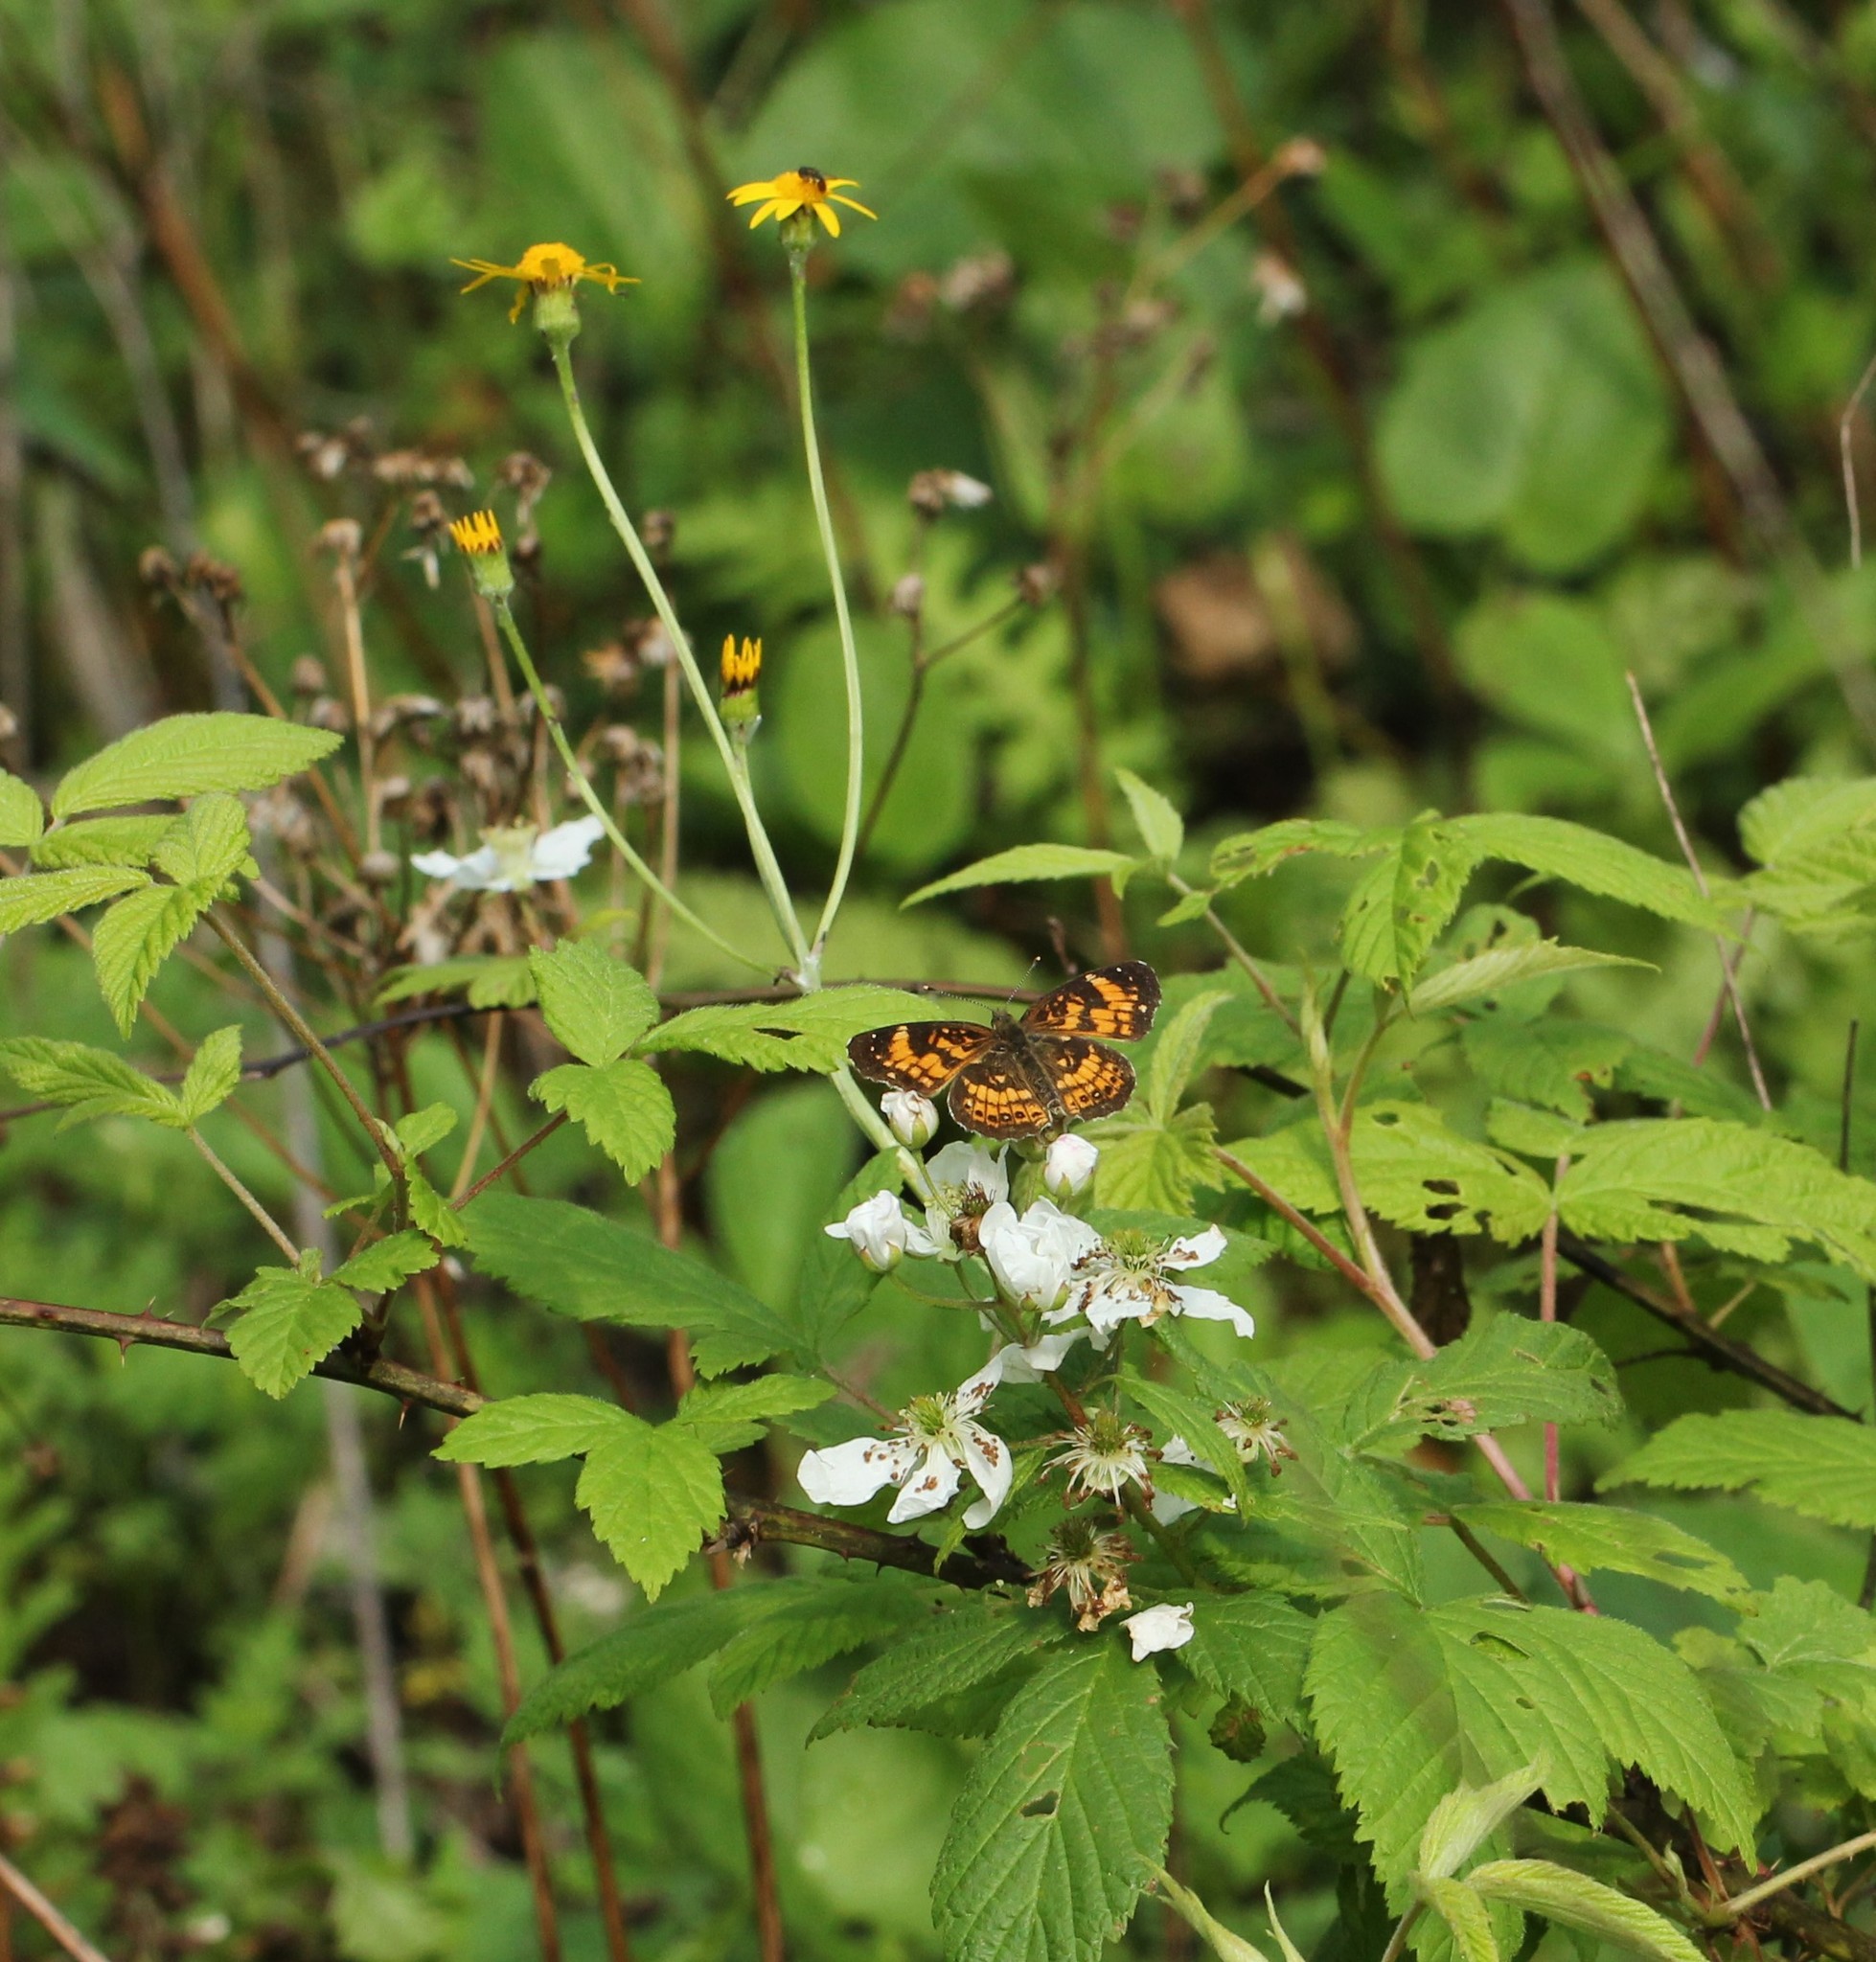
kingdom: Animalia
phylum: Arthropoda
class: Insecta
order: Lepidoptera
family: Nymphalidae
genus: Chlosyne
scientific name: Chlosyne nycteis
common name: Silvery checkerspot
